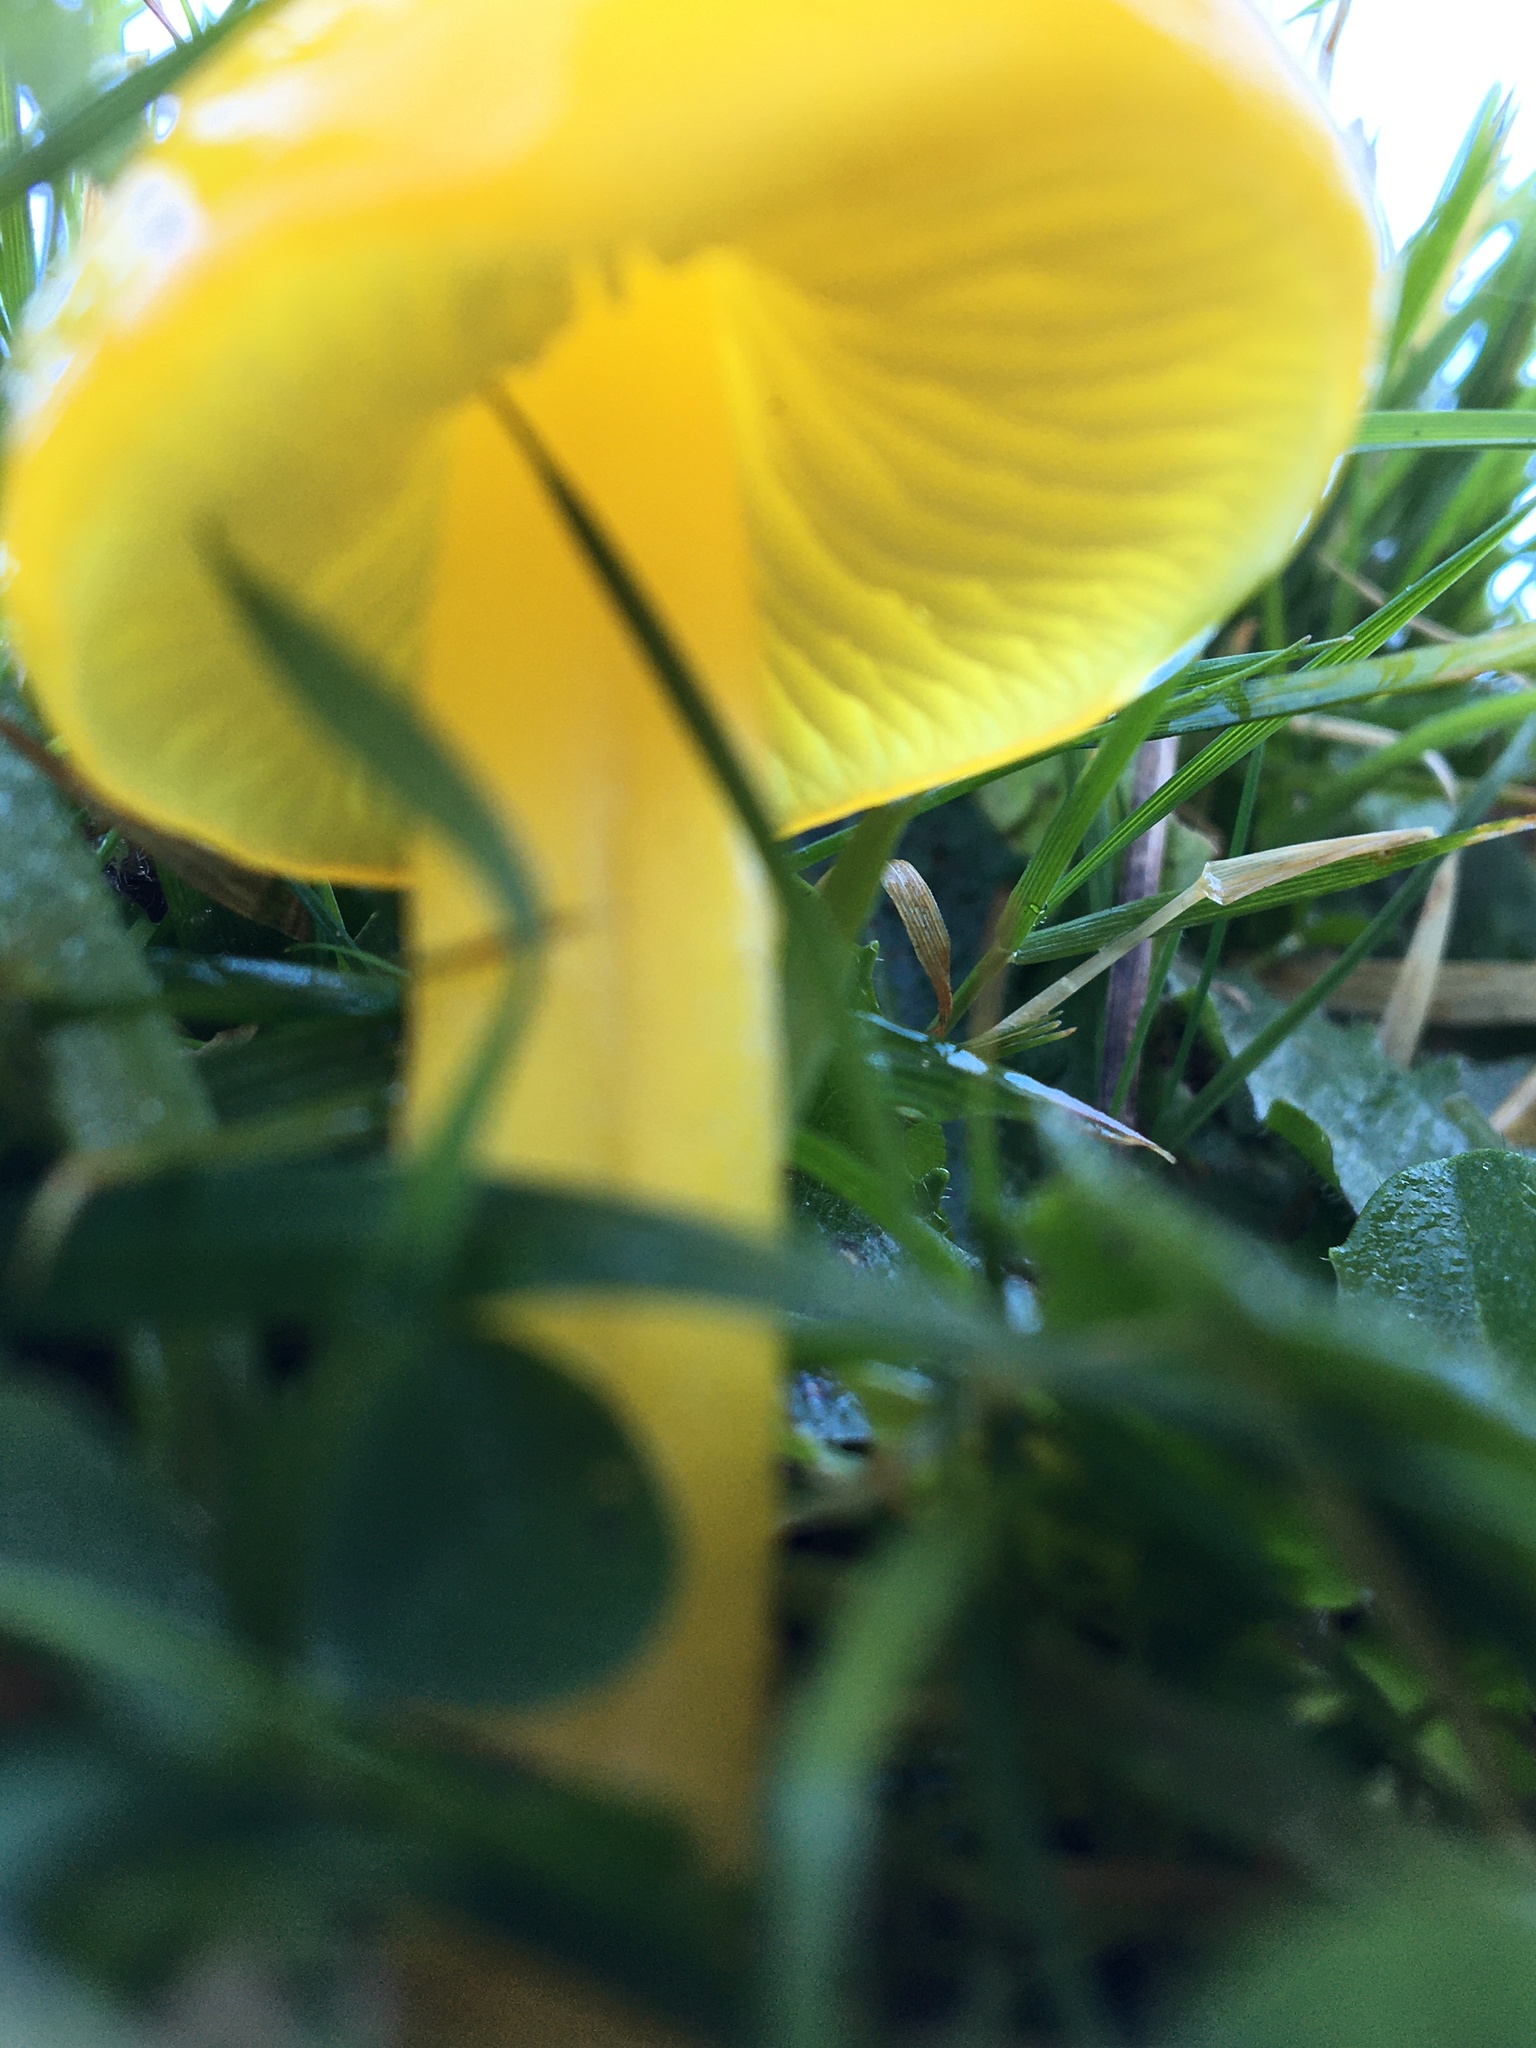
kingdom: Fungi
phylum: Basidiomycota
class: Agaricomycetes
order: Agaricales
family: Hygrophoraceae
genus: Hygrocybe
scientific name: Hygrocybe chlorophana
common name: Golden waxcap
